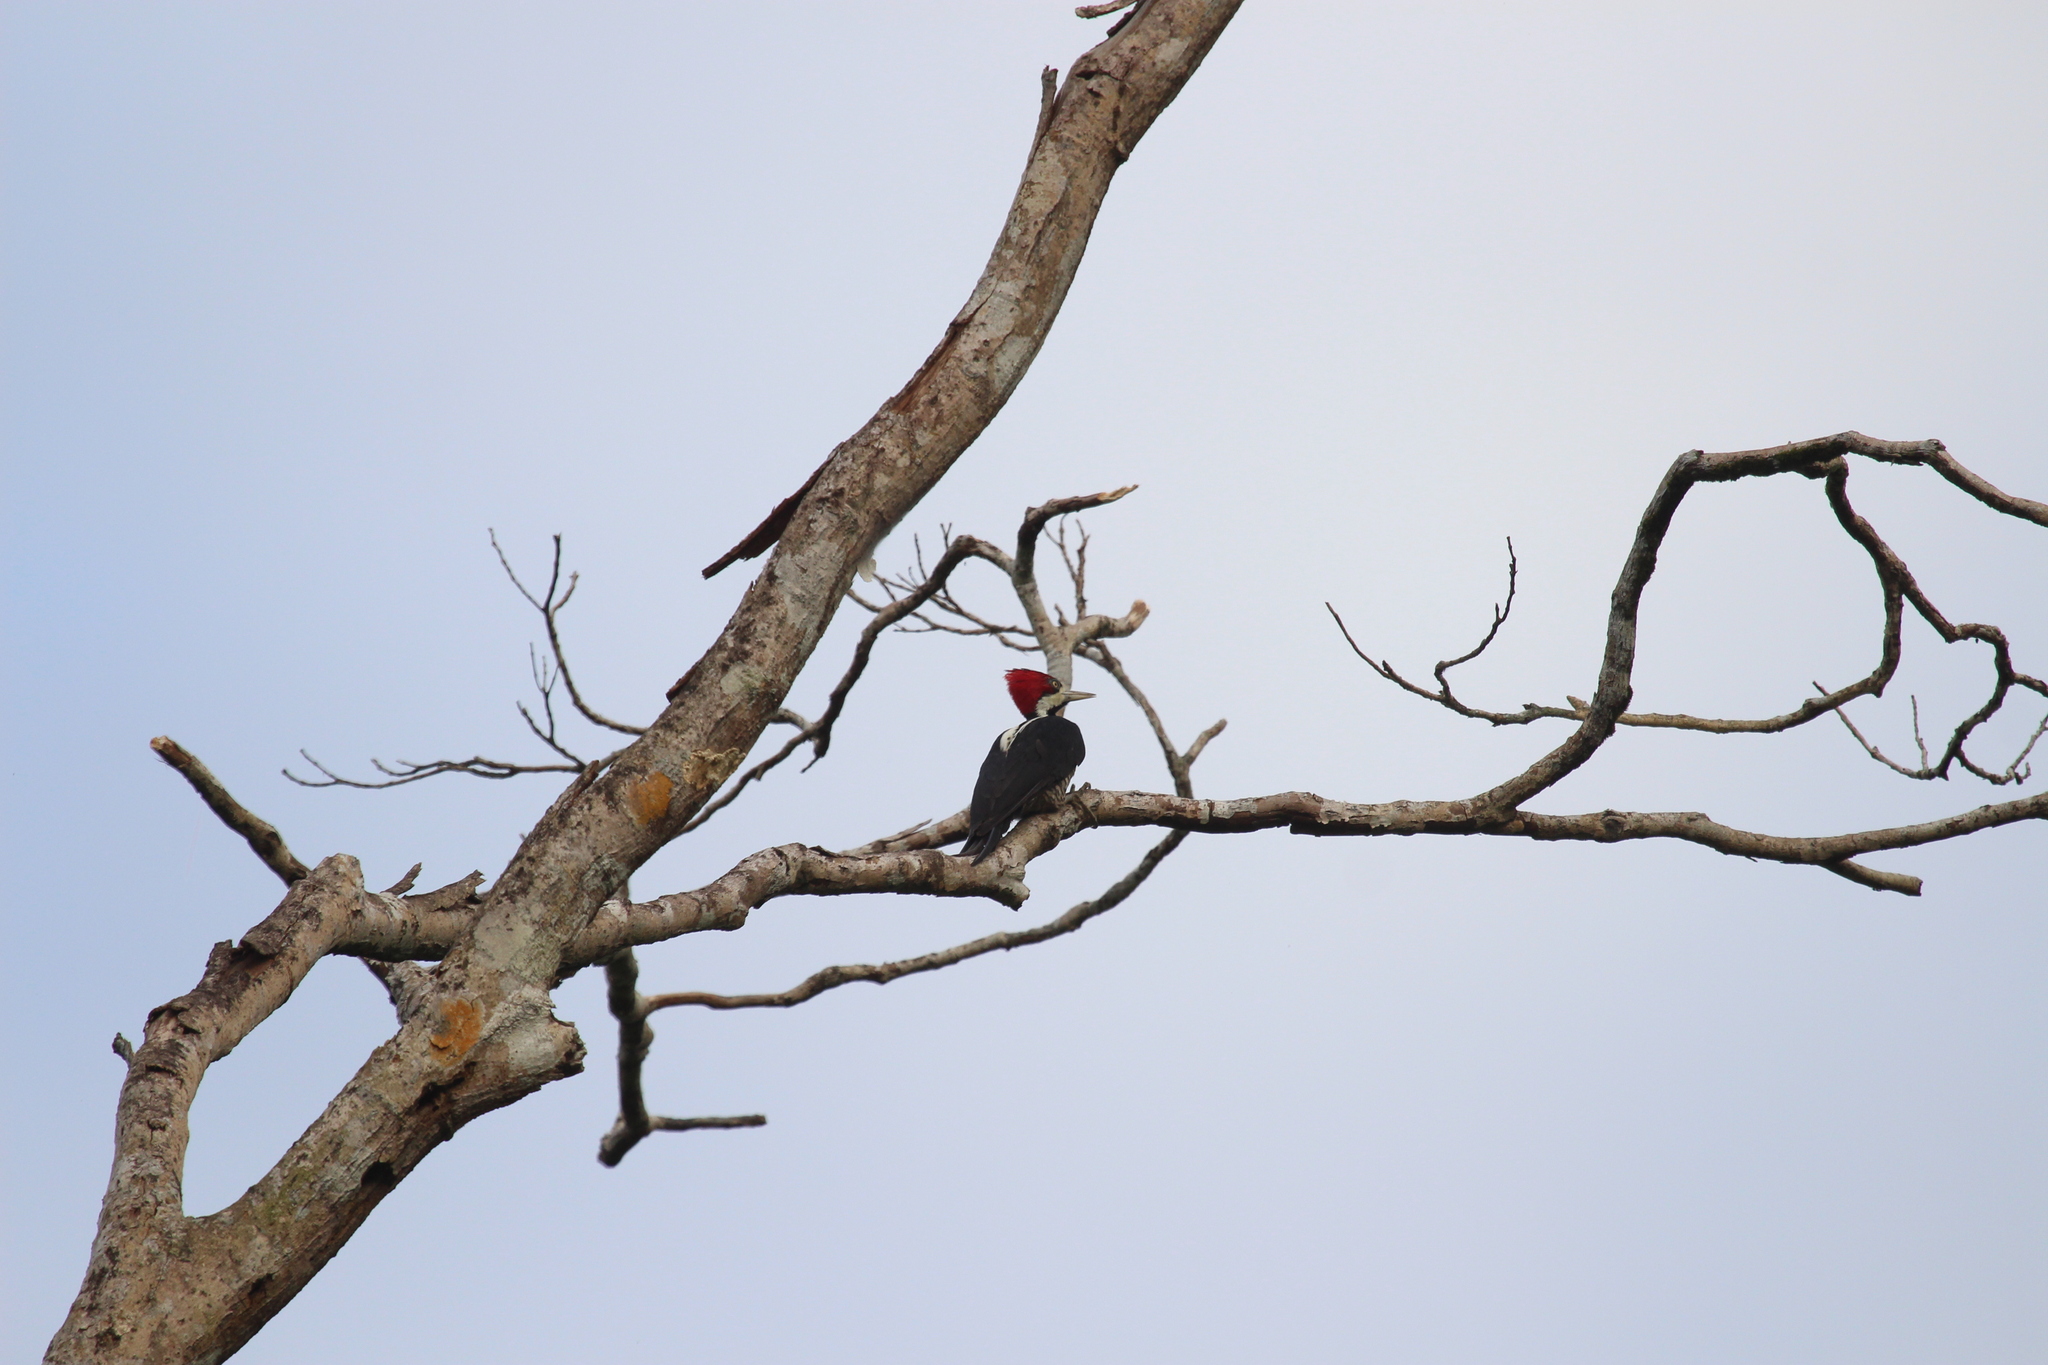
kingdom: Animalia
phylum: Chordata
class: Aves
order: Piciformes
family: Picidae
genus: Campephilus
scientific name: Campephilus melanoleucos
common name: Crimson-crested woodpecker
